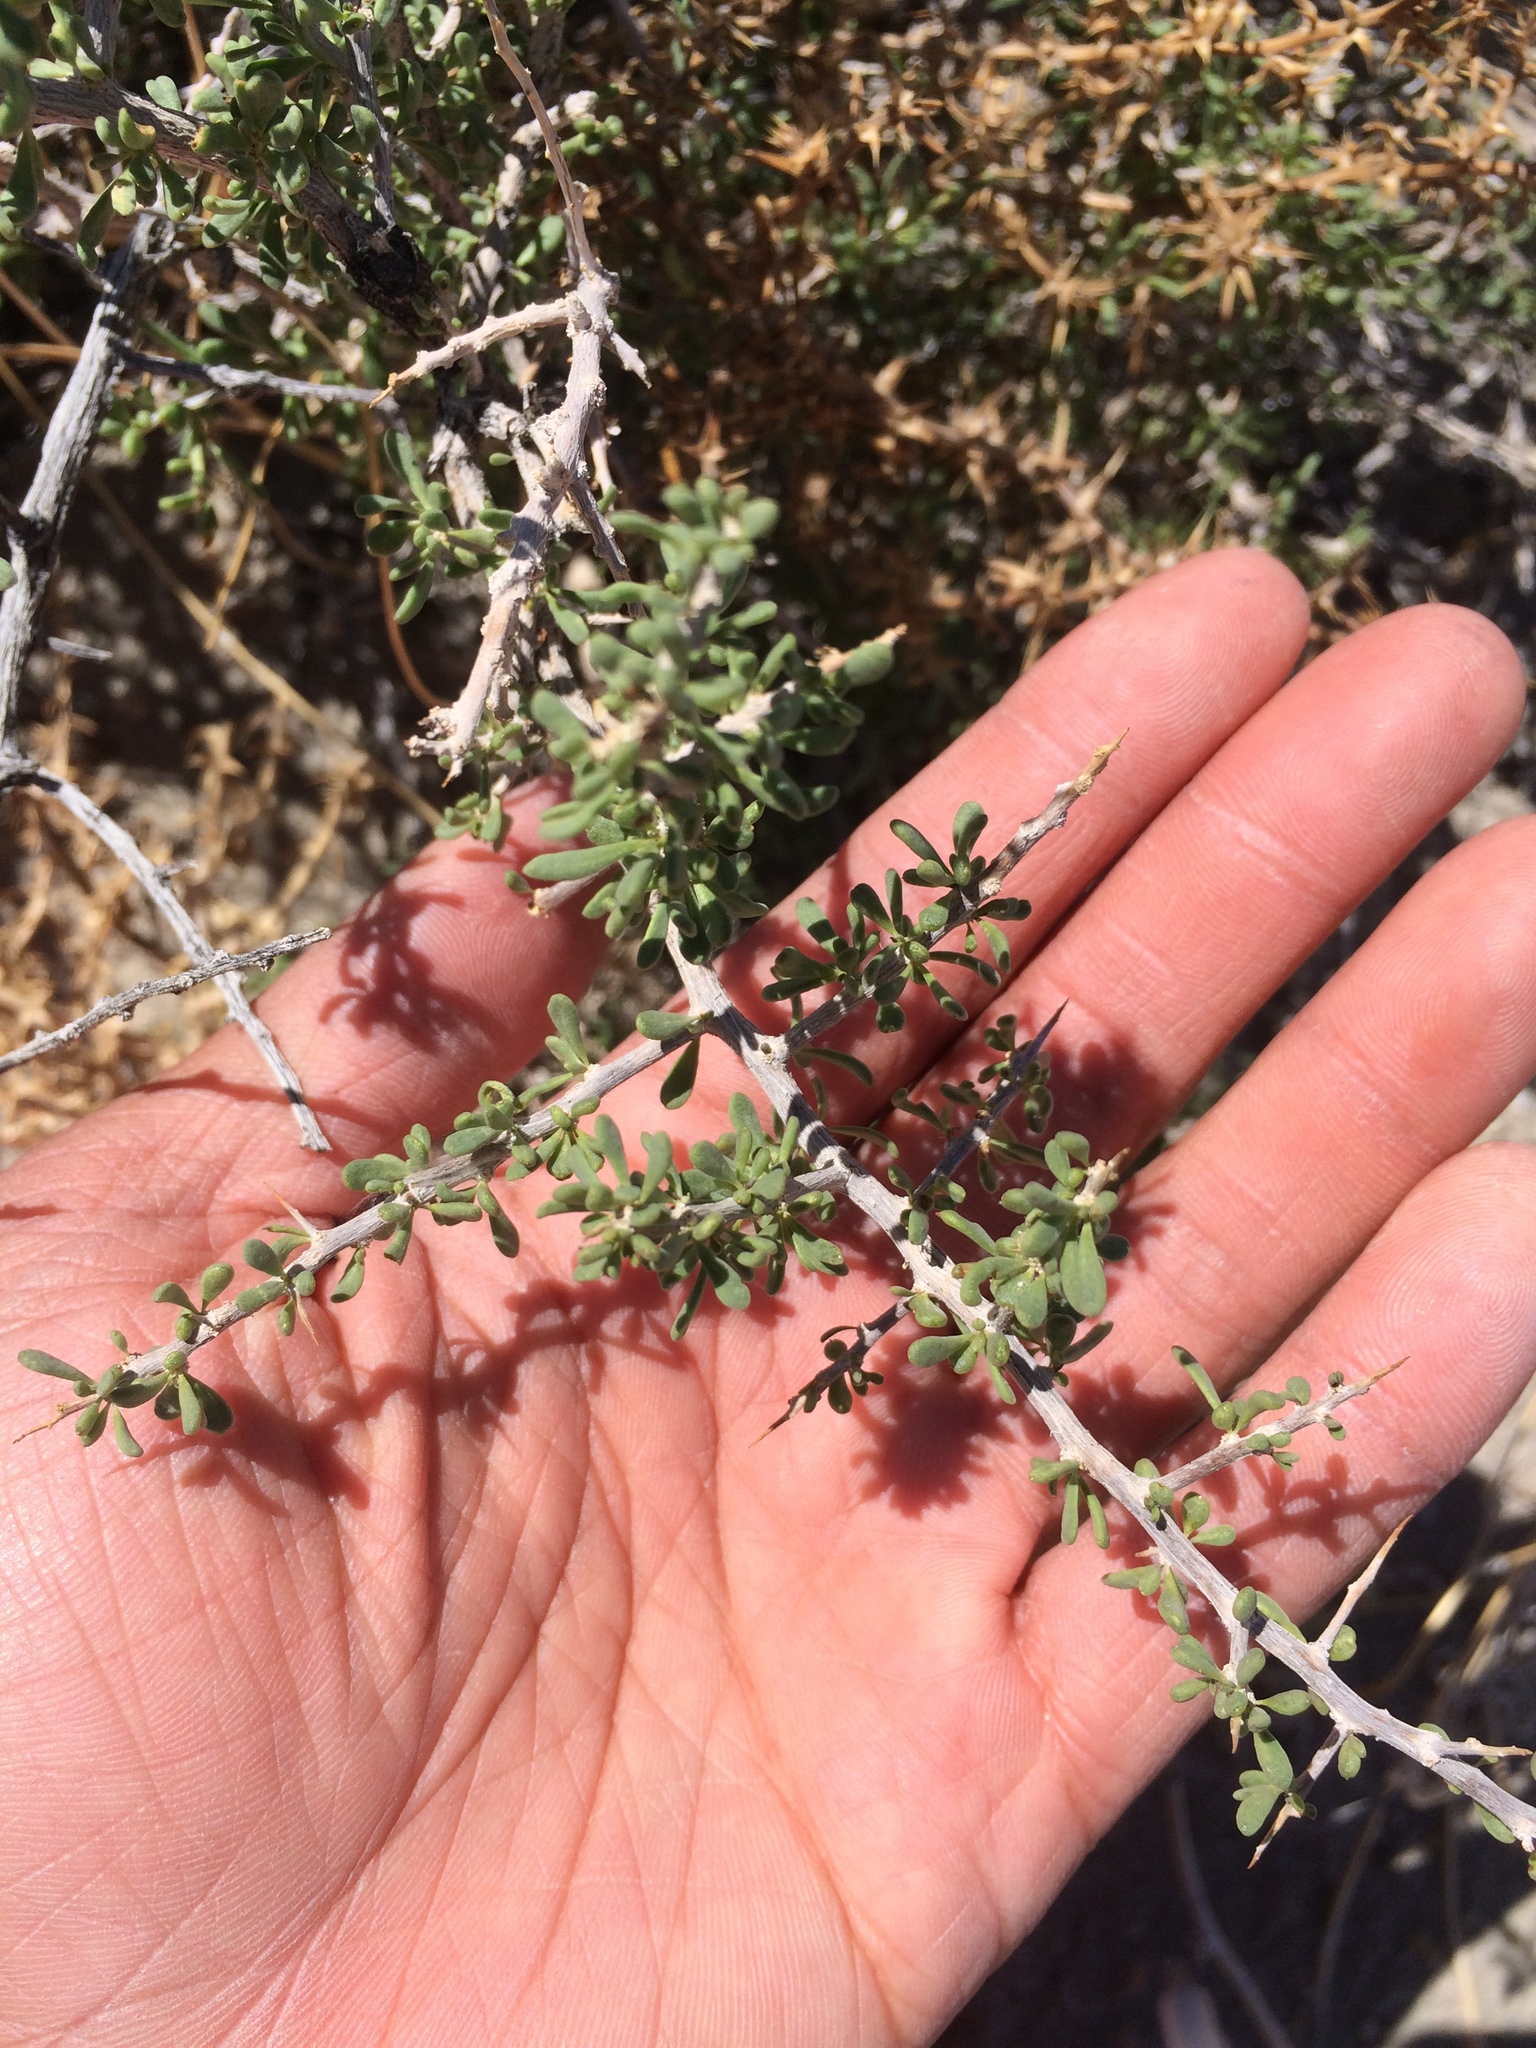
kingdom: Plantae
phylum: Tracheophyta
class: Magnoliopsida
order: Solanales
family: Solanaceae
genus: Lycium
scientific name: Lycium andersonii
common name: Water-jacket
